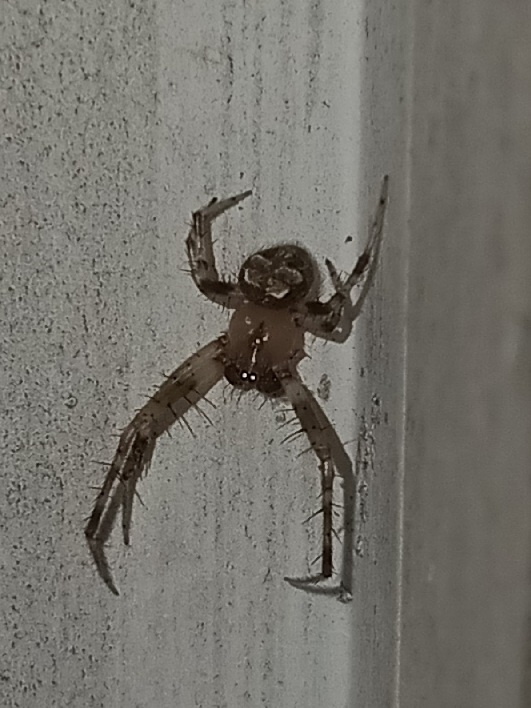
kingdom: Animalia
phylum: Arthropoda
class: Arachnida
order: Araneae
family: Araneidae
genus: Araneus
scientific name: Araneus pegnia
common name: Orb weavers
